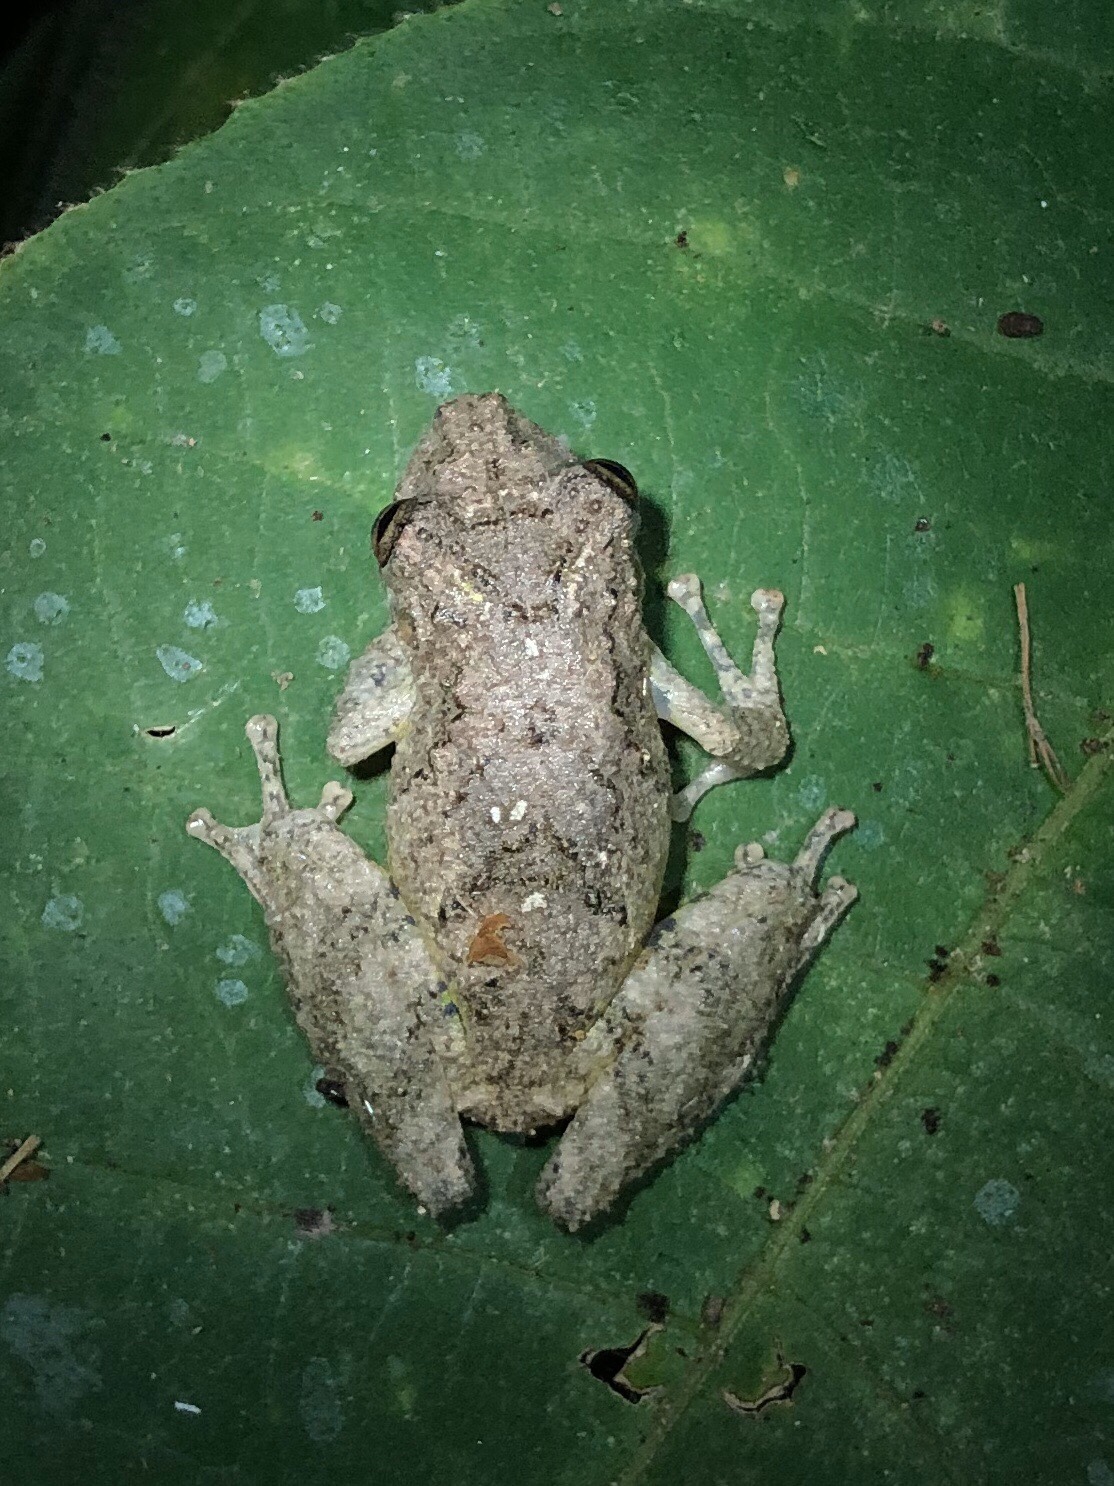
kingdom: Animalia
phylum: Chordata
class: Amphibia
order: Anura
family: Hylidae
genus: Scinax
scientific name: Scinax boulengeri
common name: Boulenger's snouted treefrog
